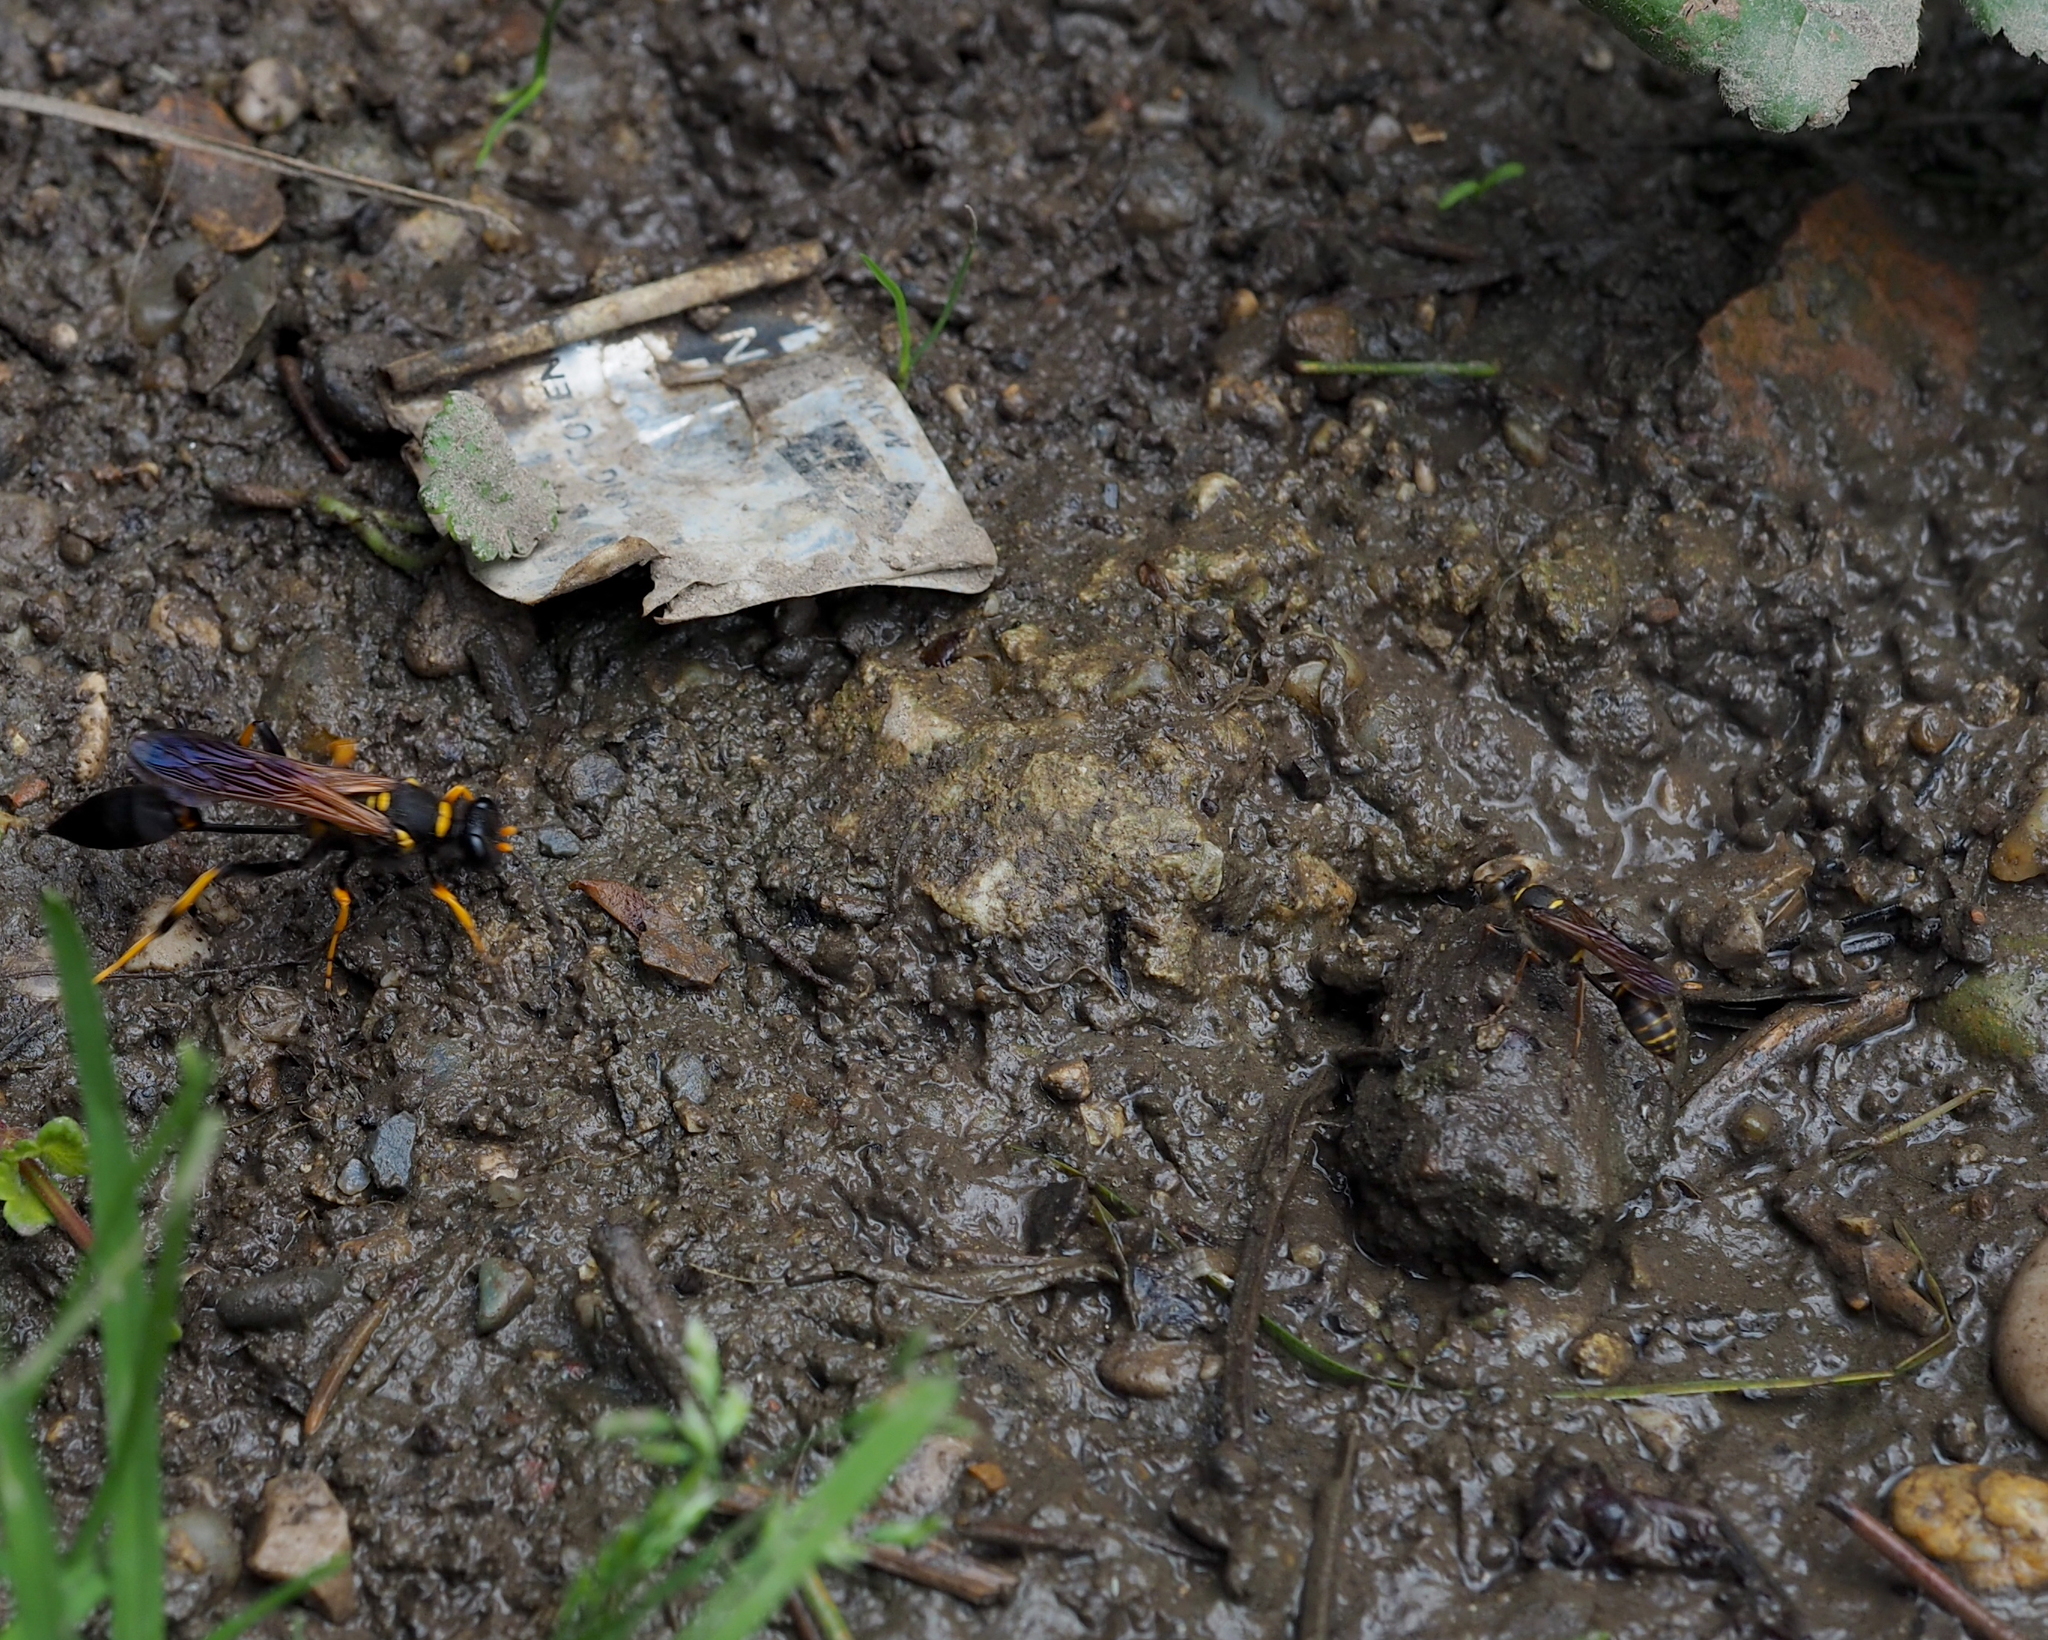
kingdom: Animalia
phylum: Arthropoda
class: Insecta
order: Hymenoptera
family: Sphecidae
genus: Sceliphron
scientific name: Sceliphron curvatum
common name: Pèlopèe
